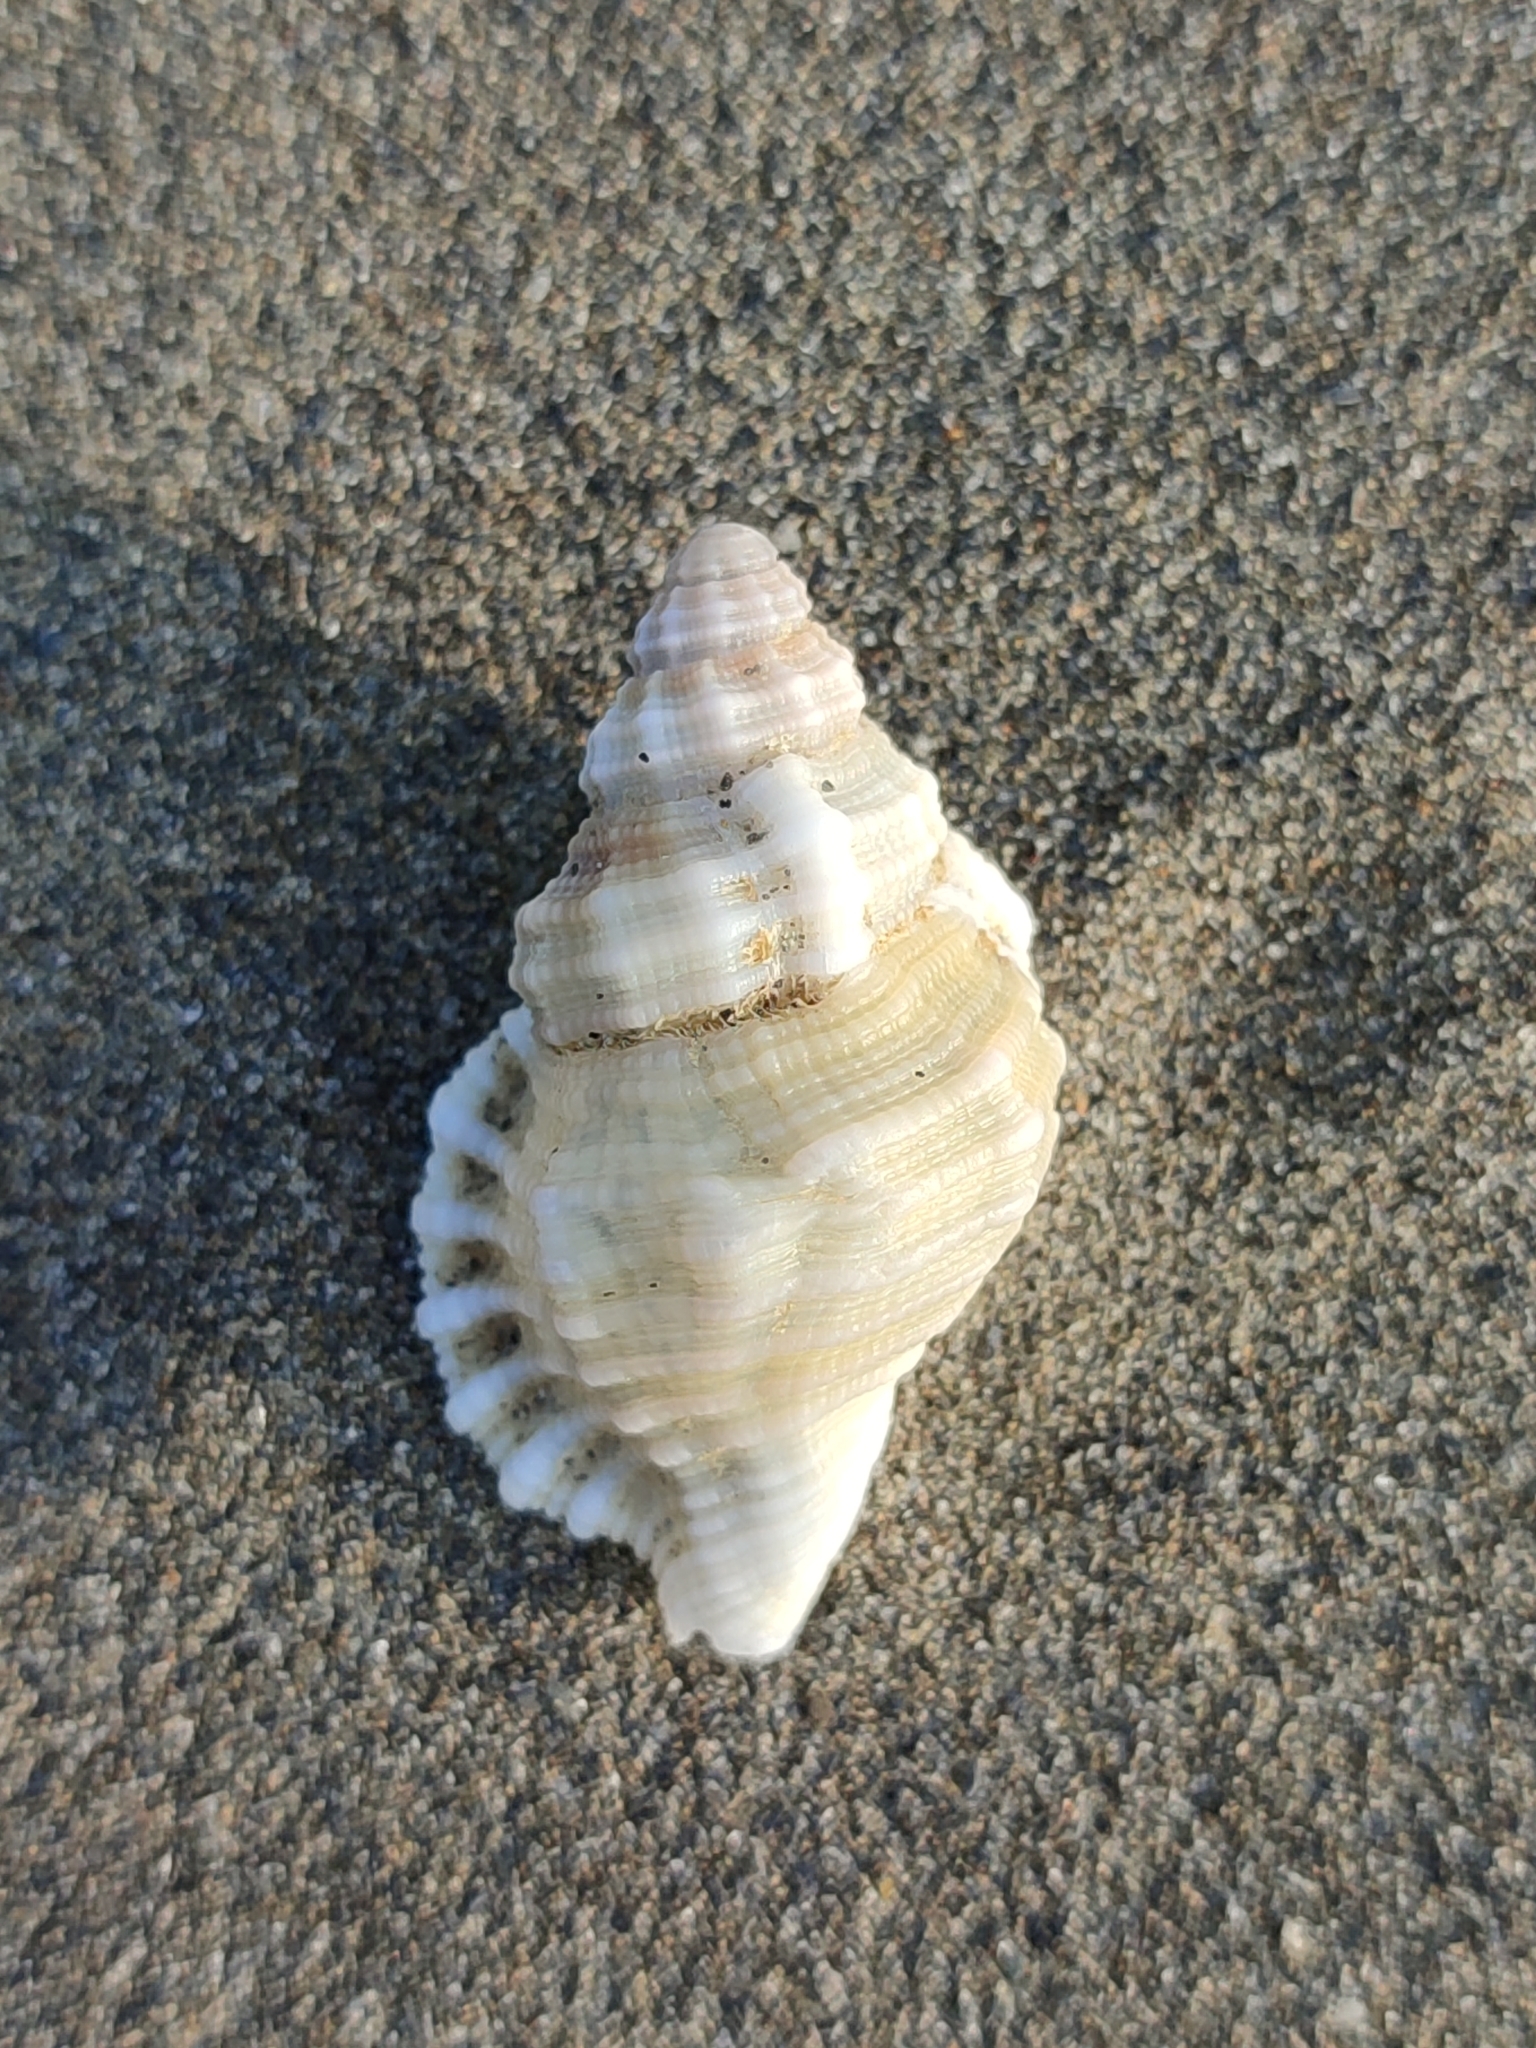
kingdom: Animalia
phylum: Mollusca
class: Gastropoda
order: Littorinimorpha
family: Cymatiidae
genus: Monoplex
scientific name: Monoplex gemmatus
